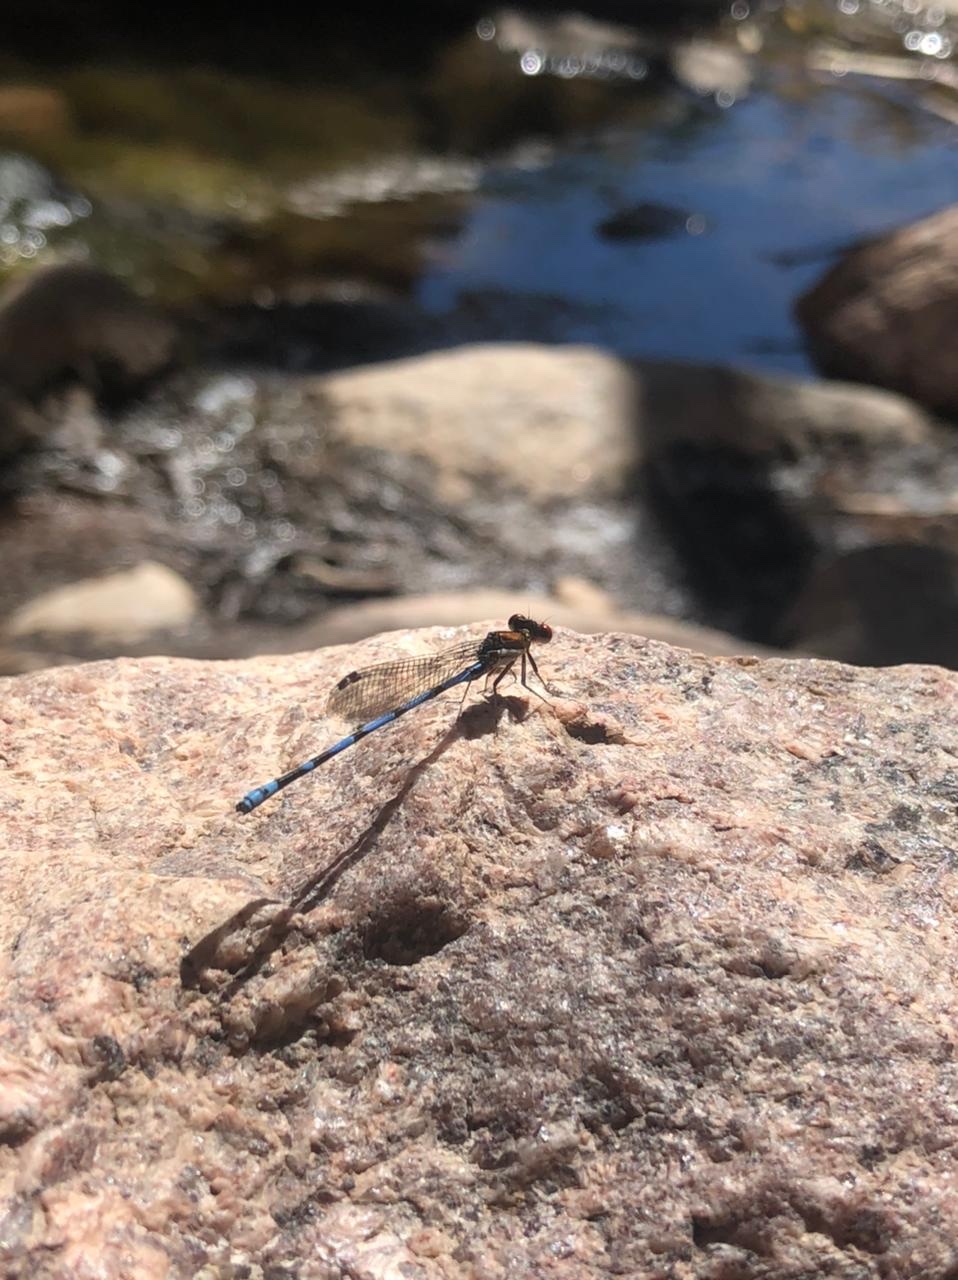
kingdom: Animalia
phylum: Arthropoda
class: Insecta
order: Odonata
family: Coenagrionidae
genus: Argia
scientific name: Argia joergenseni
